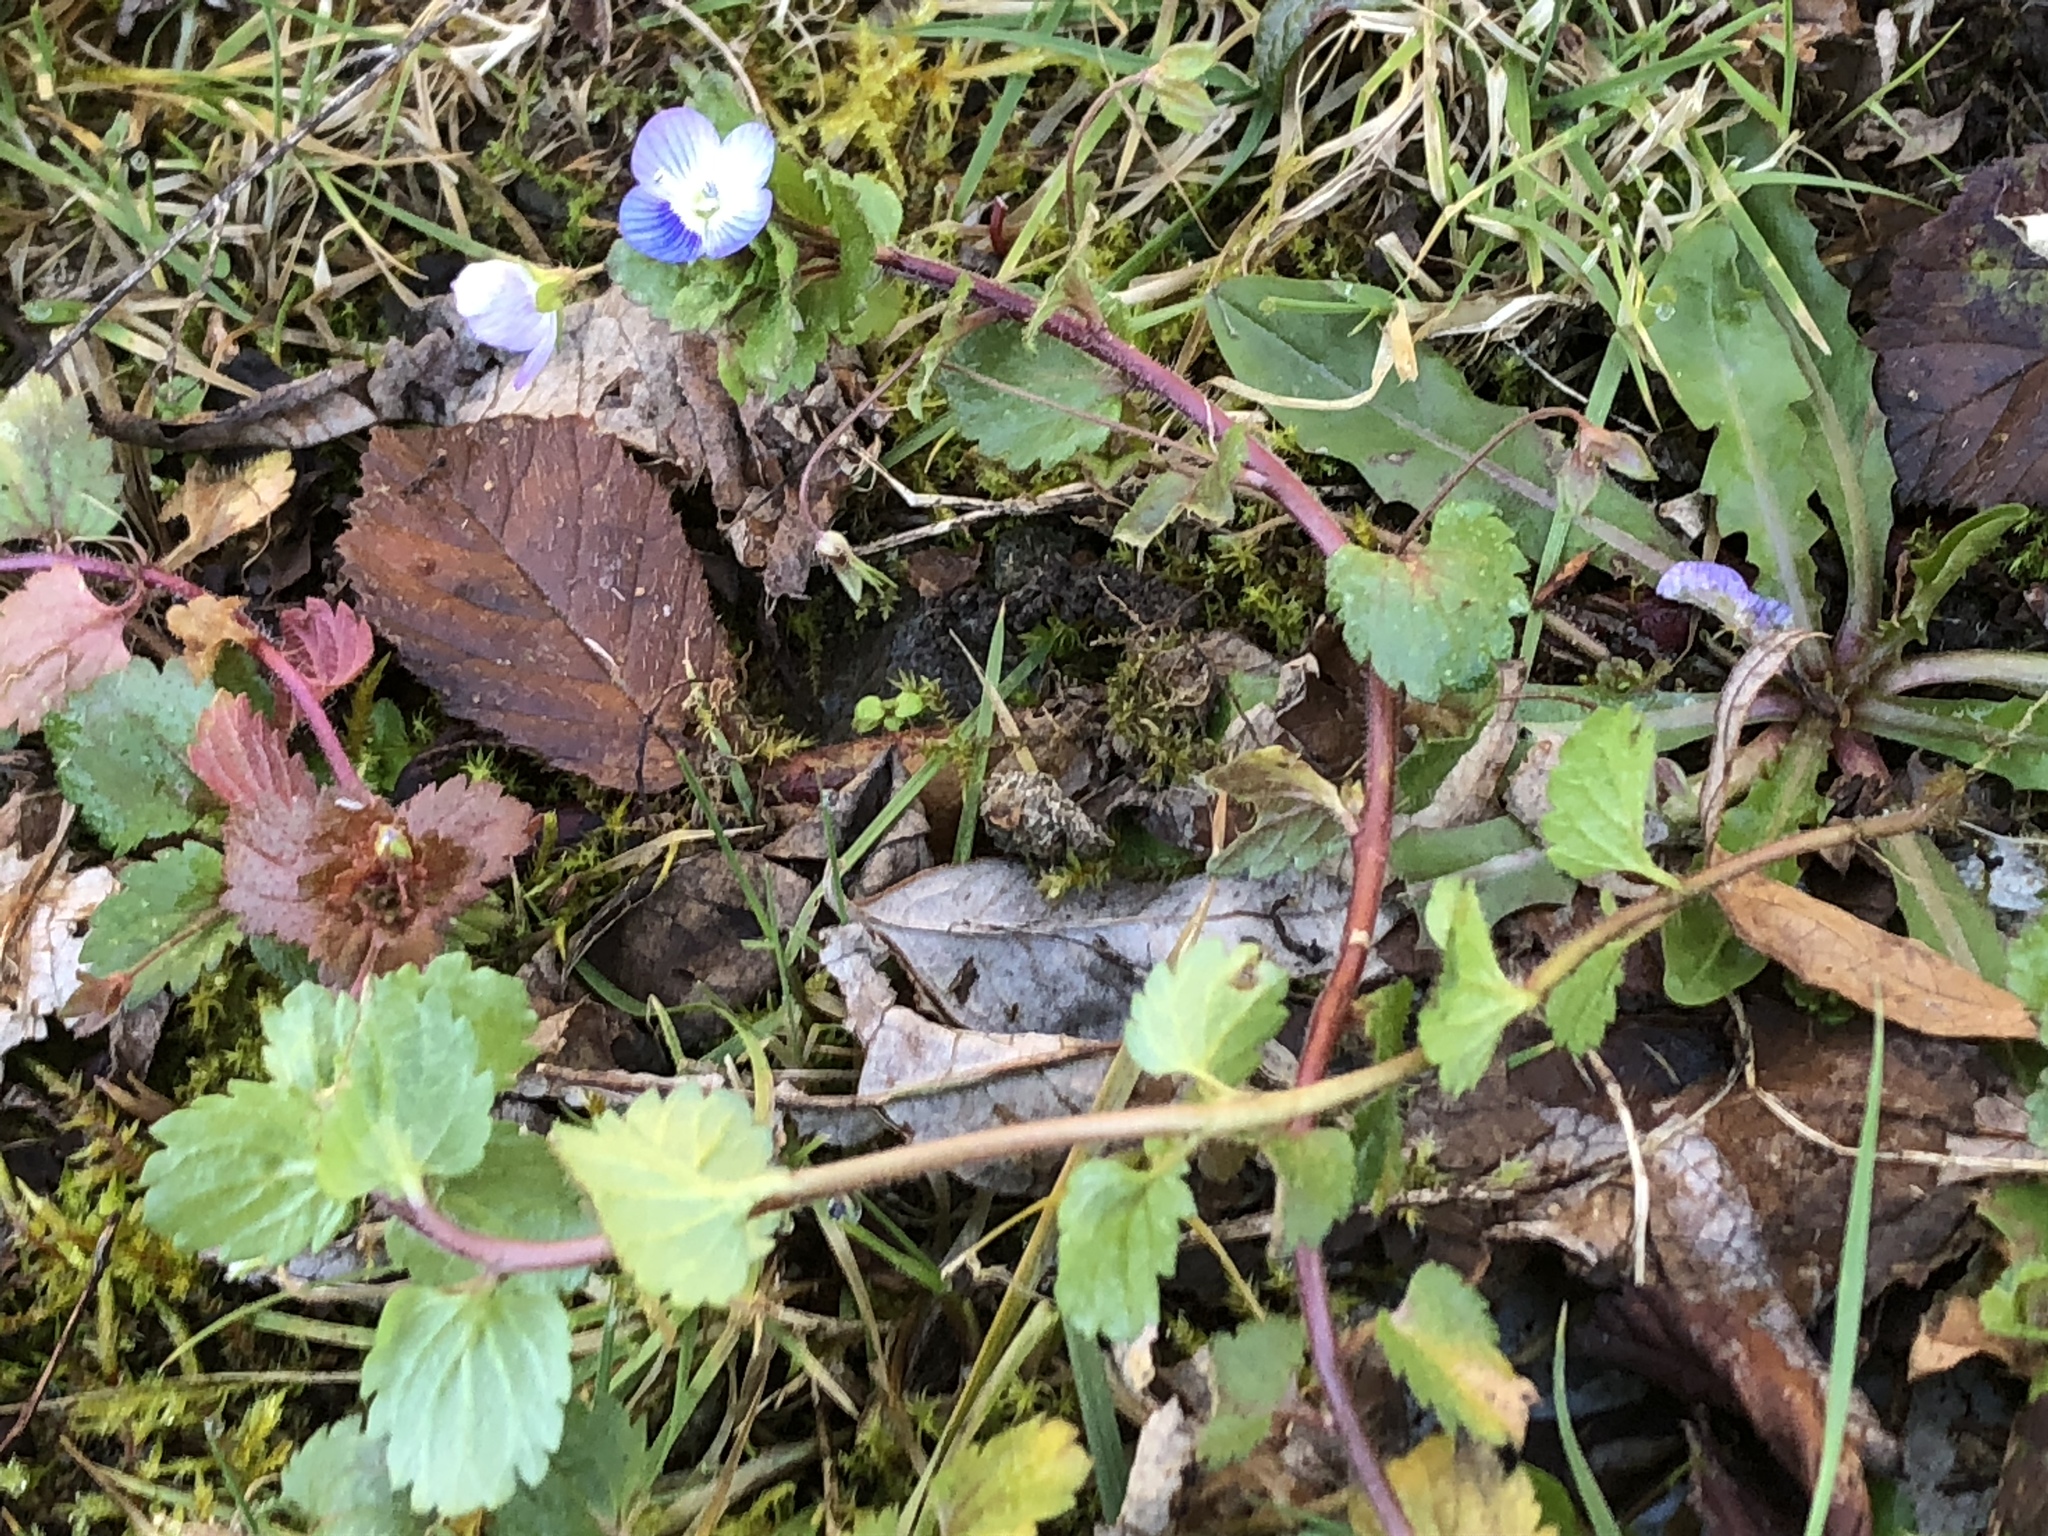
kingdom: Plantae
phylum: Tracheophyta
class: Magnoliopsida
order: Lamiales
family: Plantaginaceae
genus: Veronica
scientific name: Veronica persica
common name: Common field-speedwell
